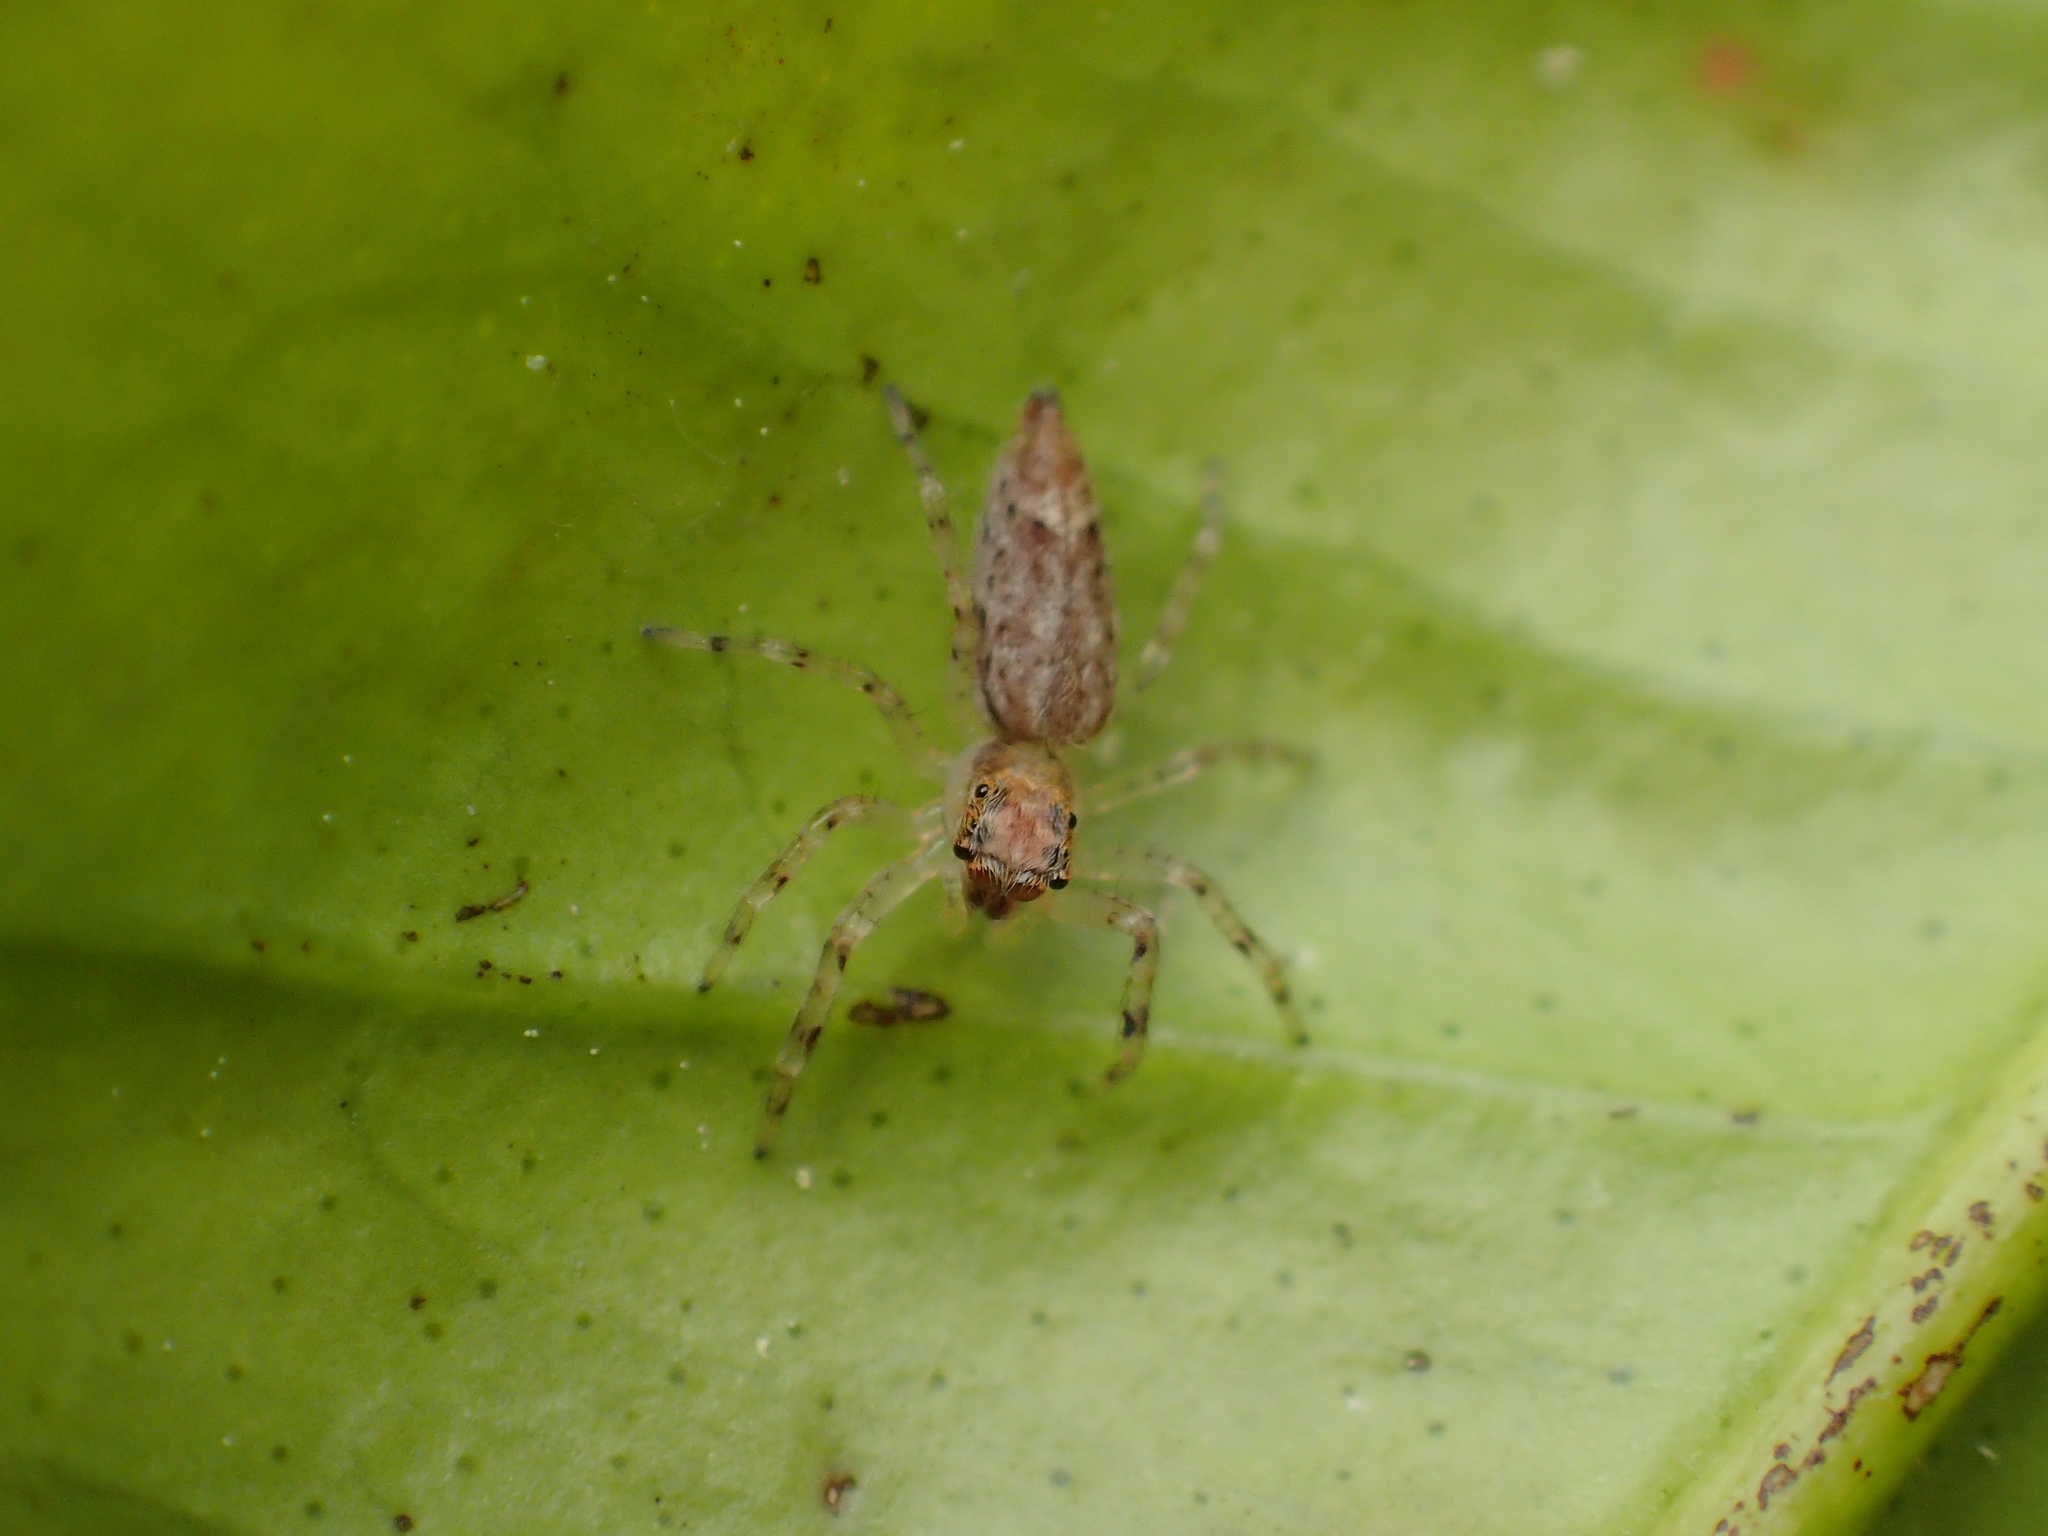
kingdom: Animalia
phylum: Arthropoda
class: Arachnida
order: Araneae
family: Salticidae
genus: Helpis
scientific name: Helpis minitabunda
